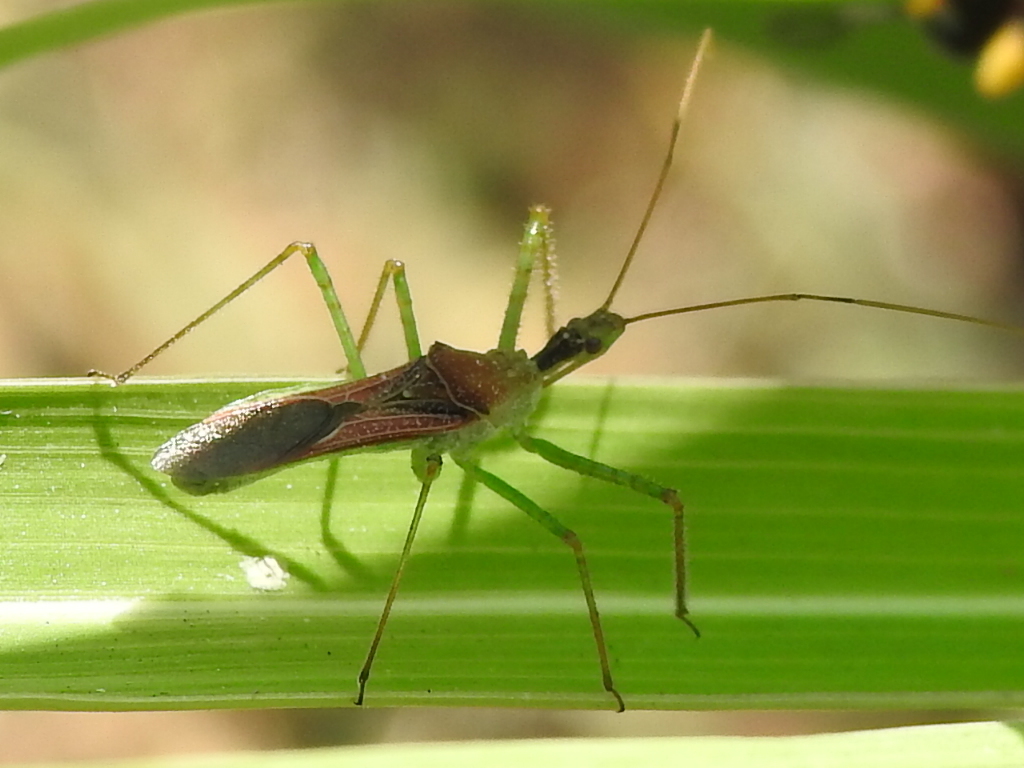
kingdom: Animalia
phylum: Arthropoda
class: Insecta
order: Hemiptera
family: Reduviidae
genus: Zelus
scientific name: Zelus renardii
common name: Assassin bug
